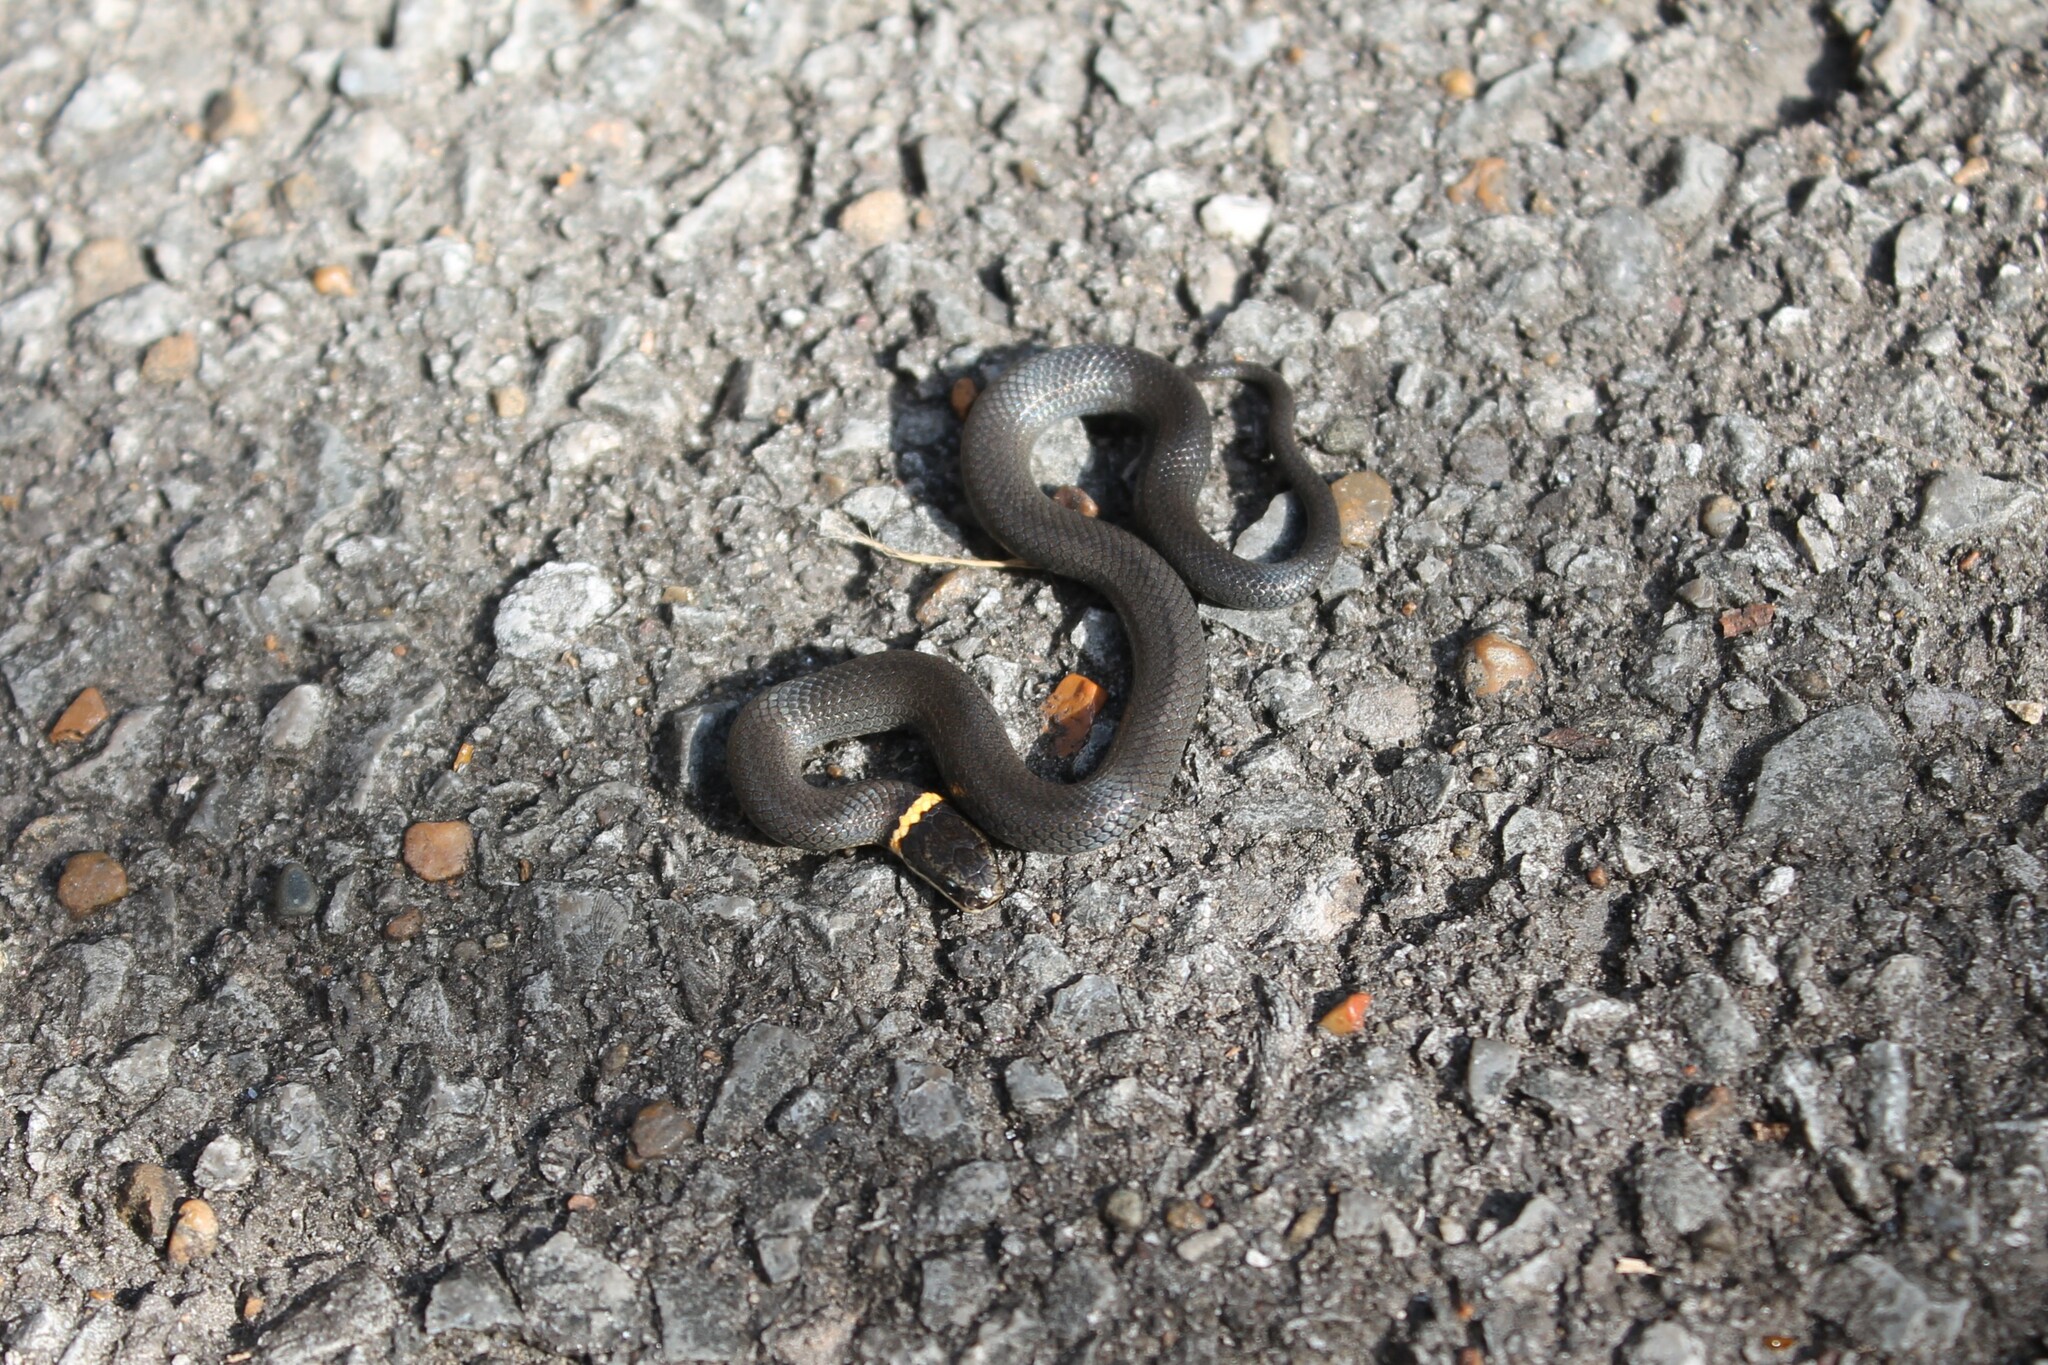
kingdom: Animalia
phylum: Chordata
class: Squamata
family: Colubridae
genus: Diadophis
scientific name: Diadophis punctatus
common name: Ringneck snake
